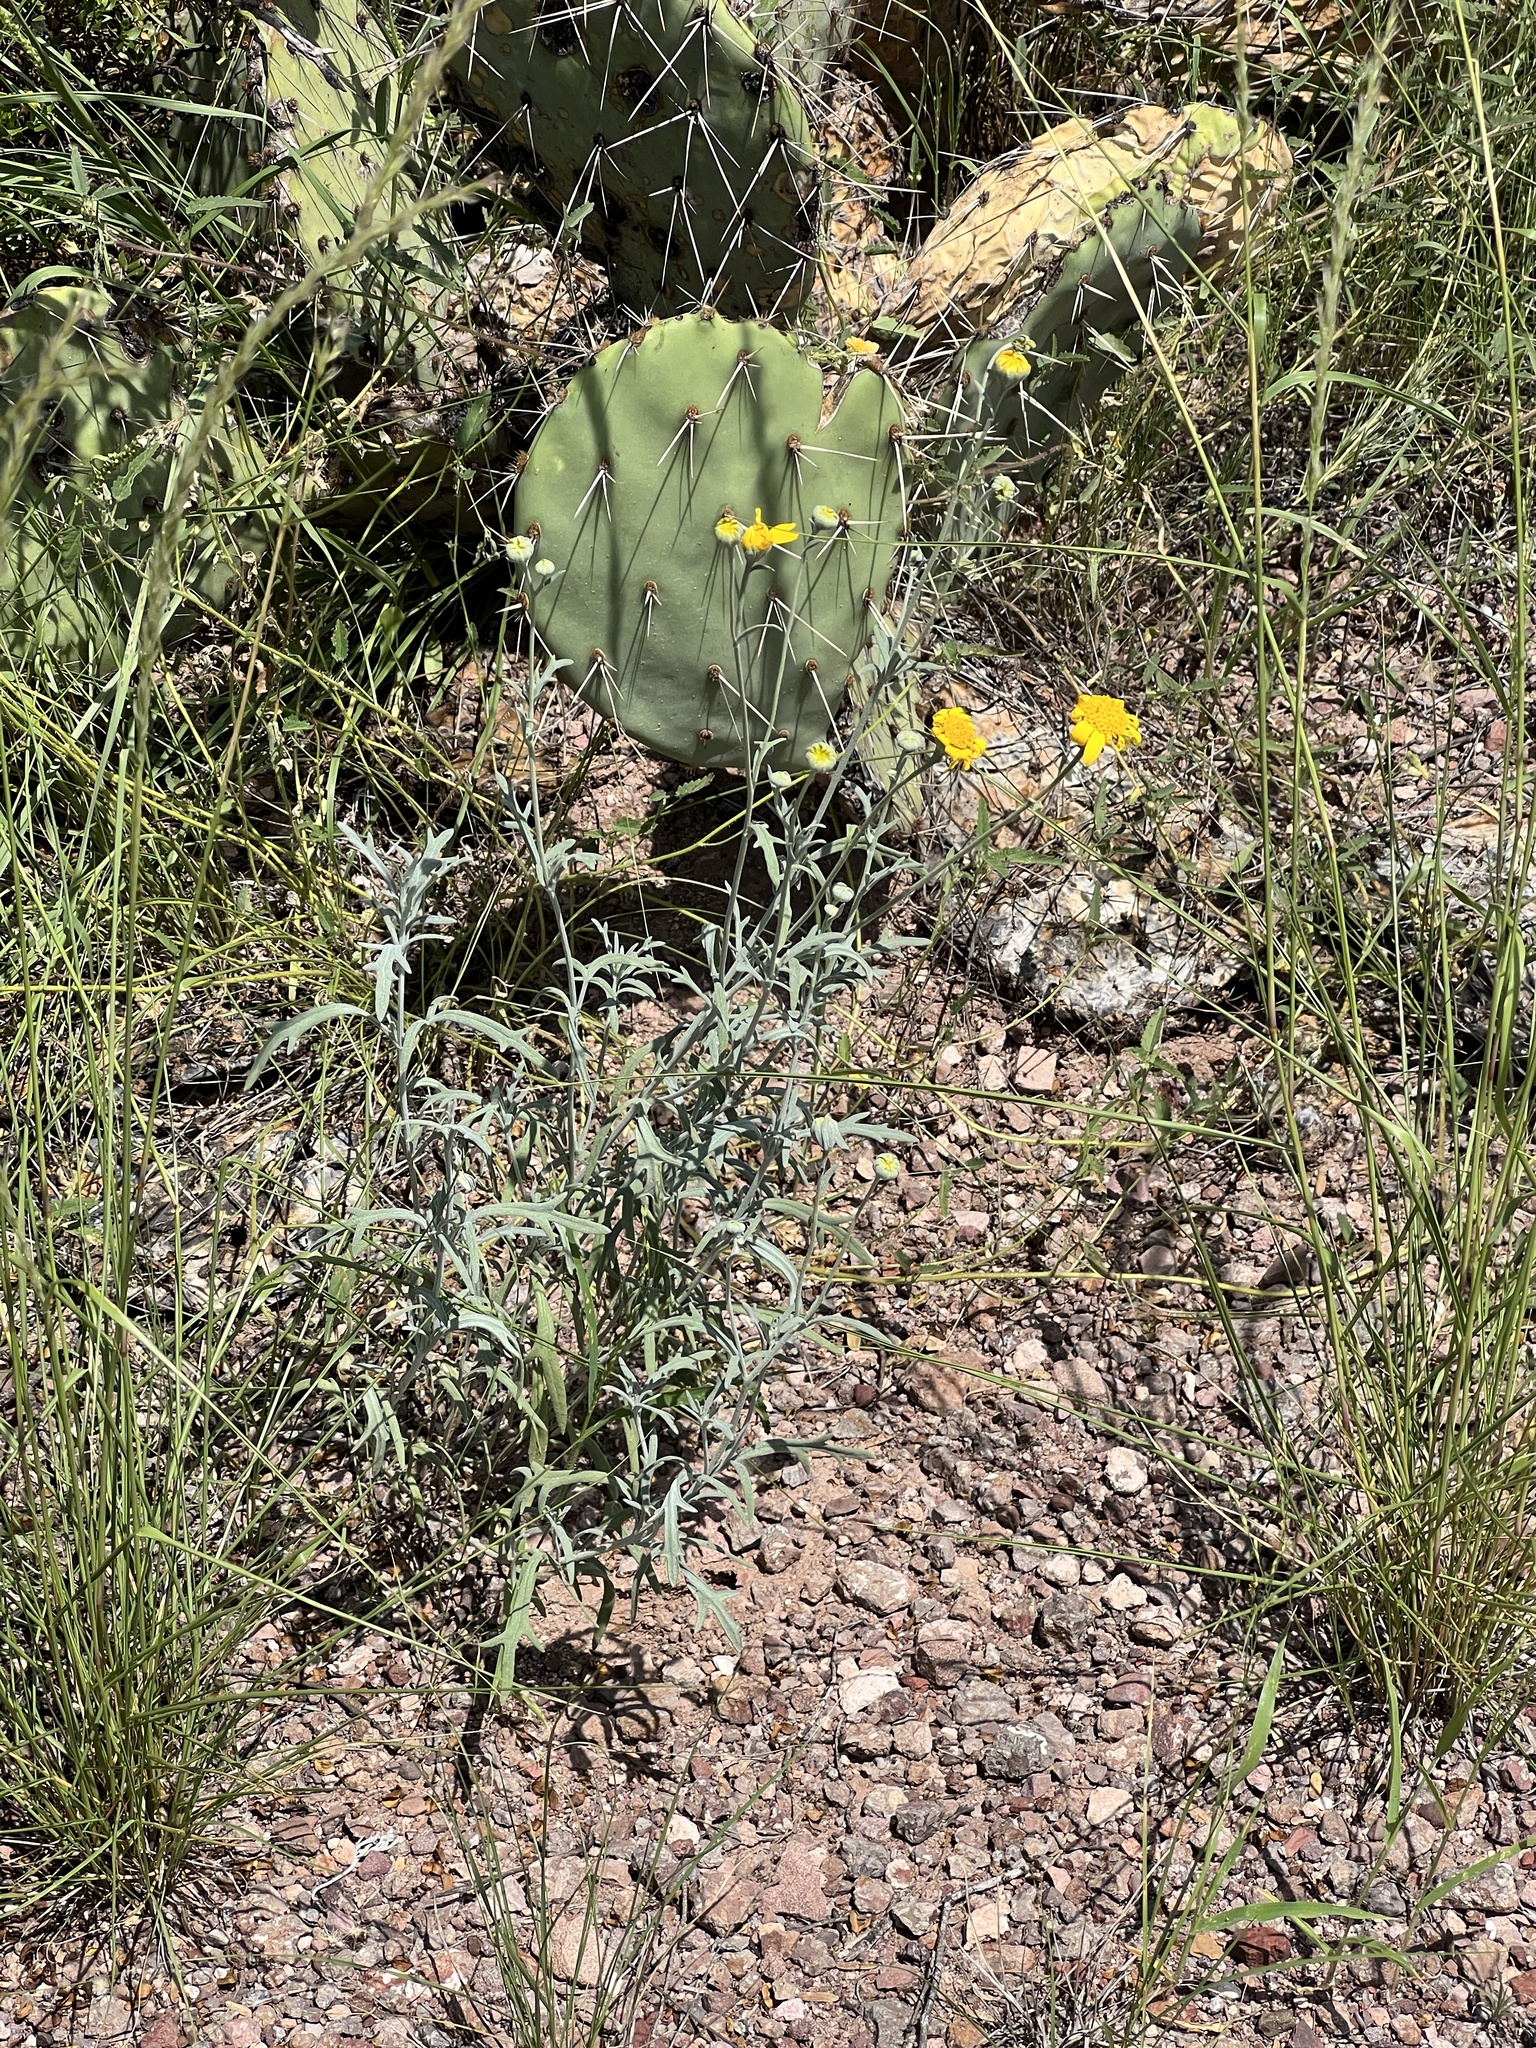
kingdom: Plantae
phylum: Tracheophyta
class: Magnoliopsida
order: Asterales
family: Asteraceae
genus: Picradeniopsis
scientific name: Picradeniopsis absinthifolia
